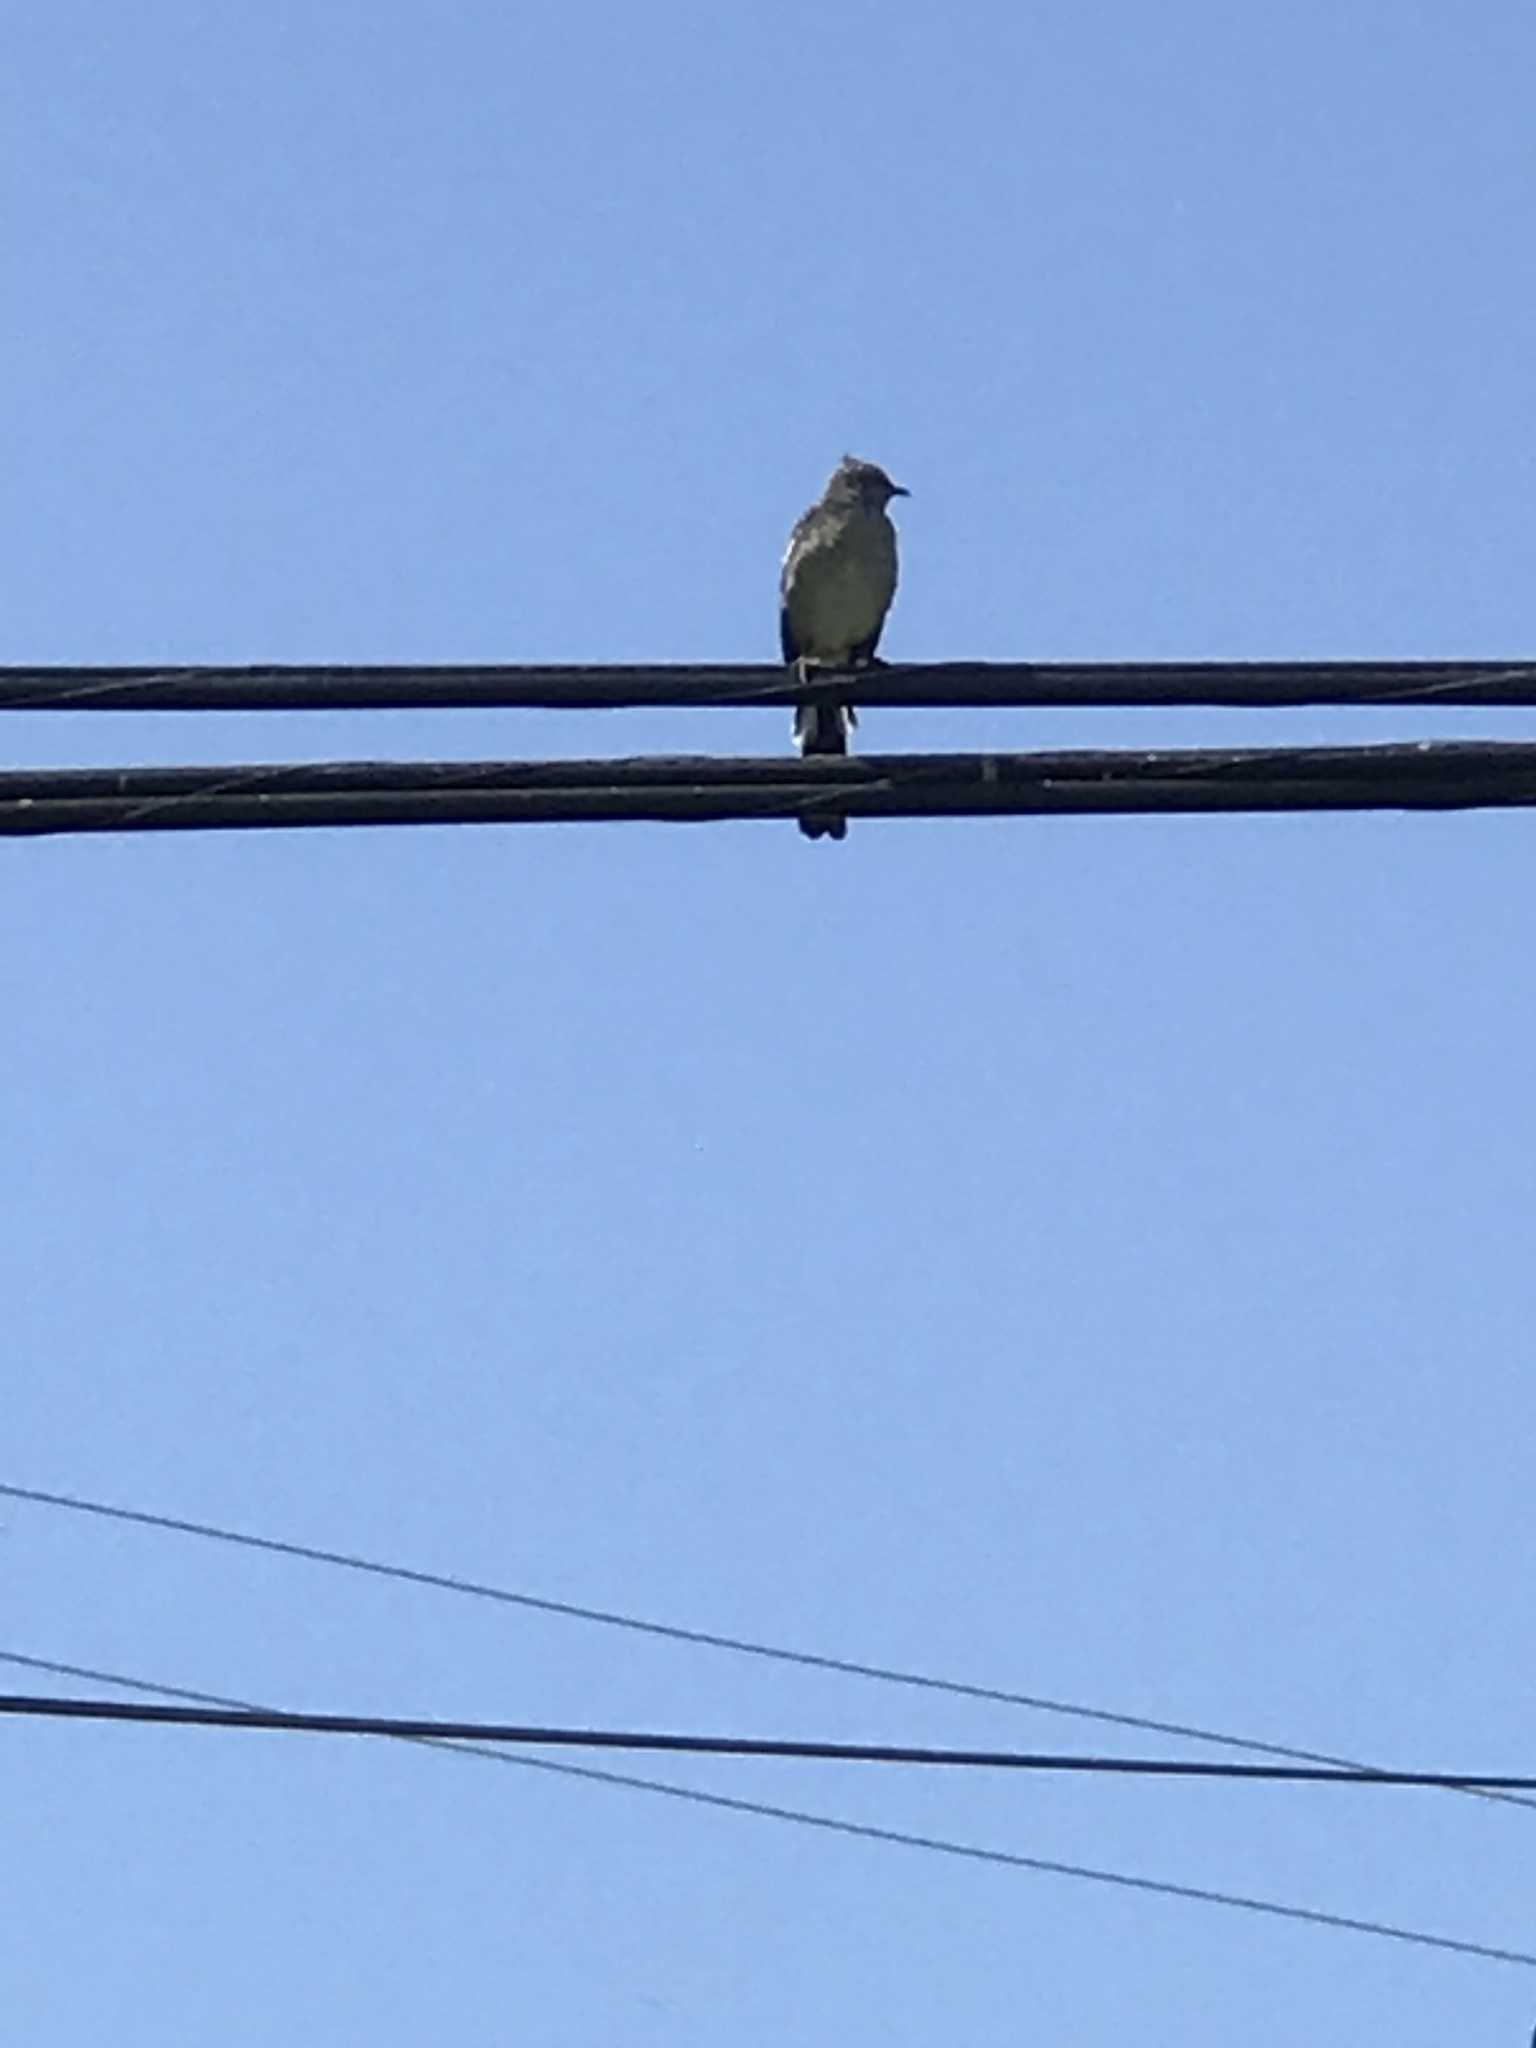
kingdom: Animalia
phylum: Chordata
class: Aves
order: Passeriformes
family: Mimidae
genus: Mimus
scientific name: Mimus polyglottos
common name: Northern mockingbird
